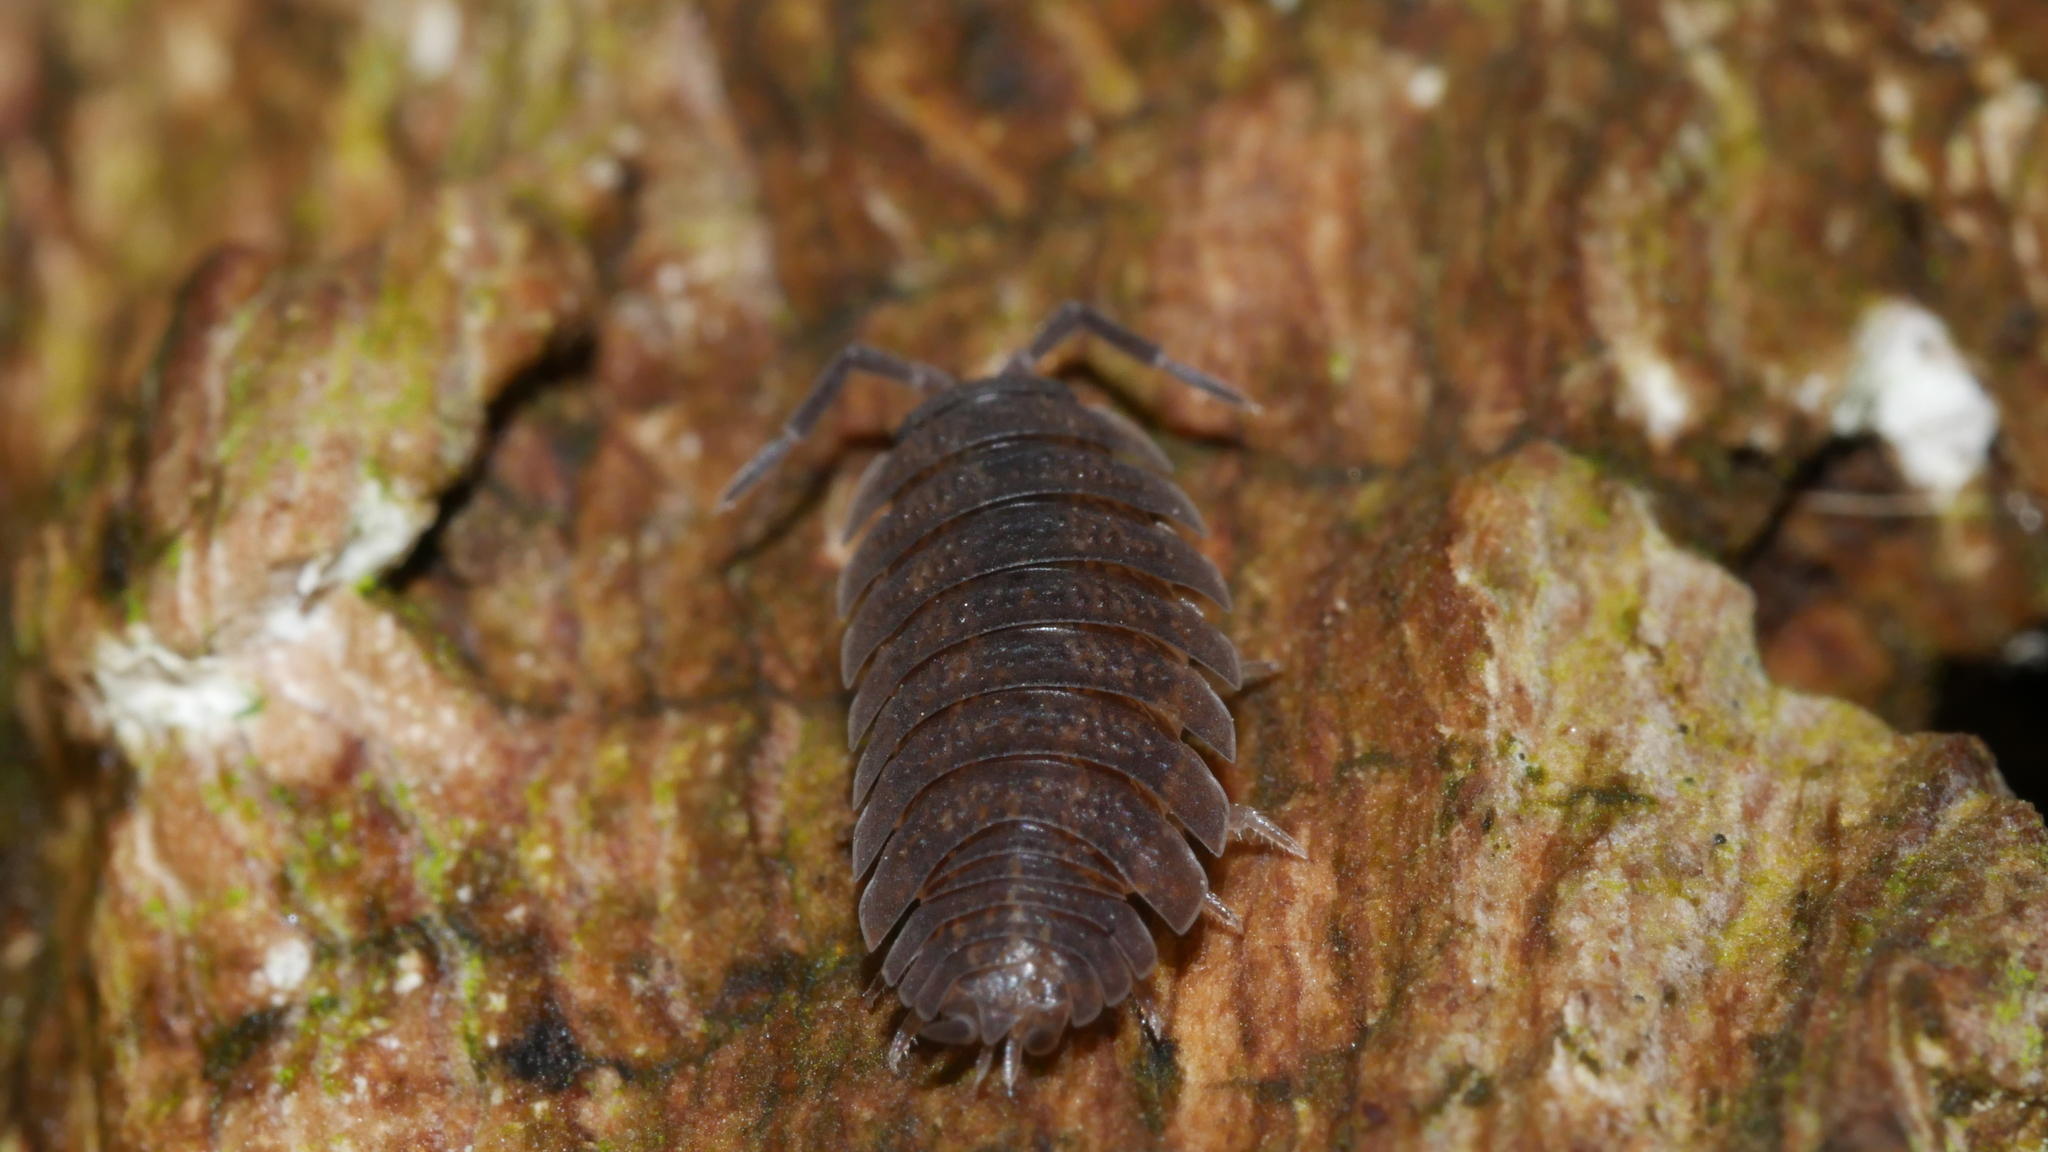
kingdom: Animalia
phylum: Arthropoda
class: Malacostraca
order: Isopoda
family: Porcellionidae
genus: Porcellio
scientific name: Porcellio scaber
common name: Common rough woodlouse
